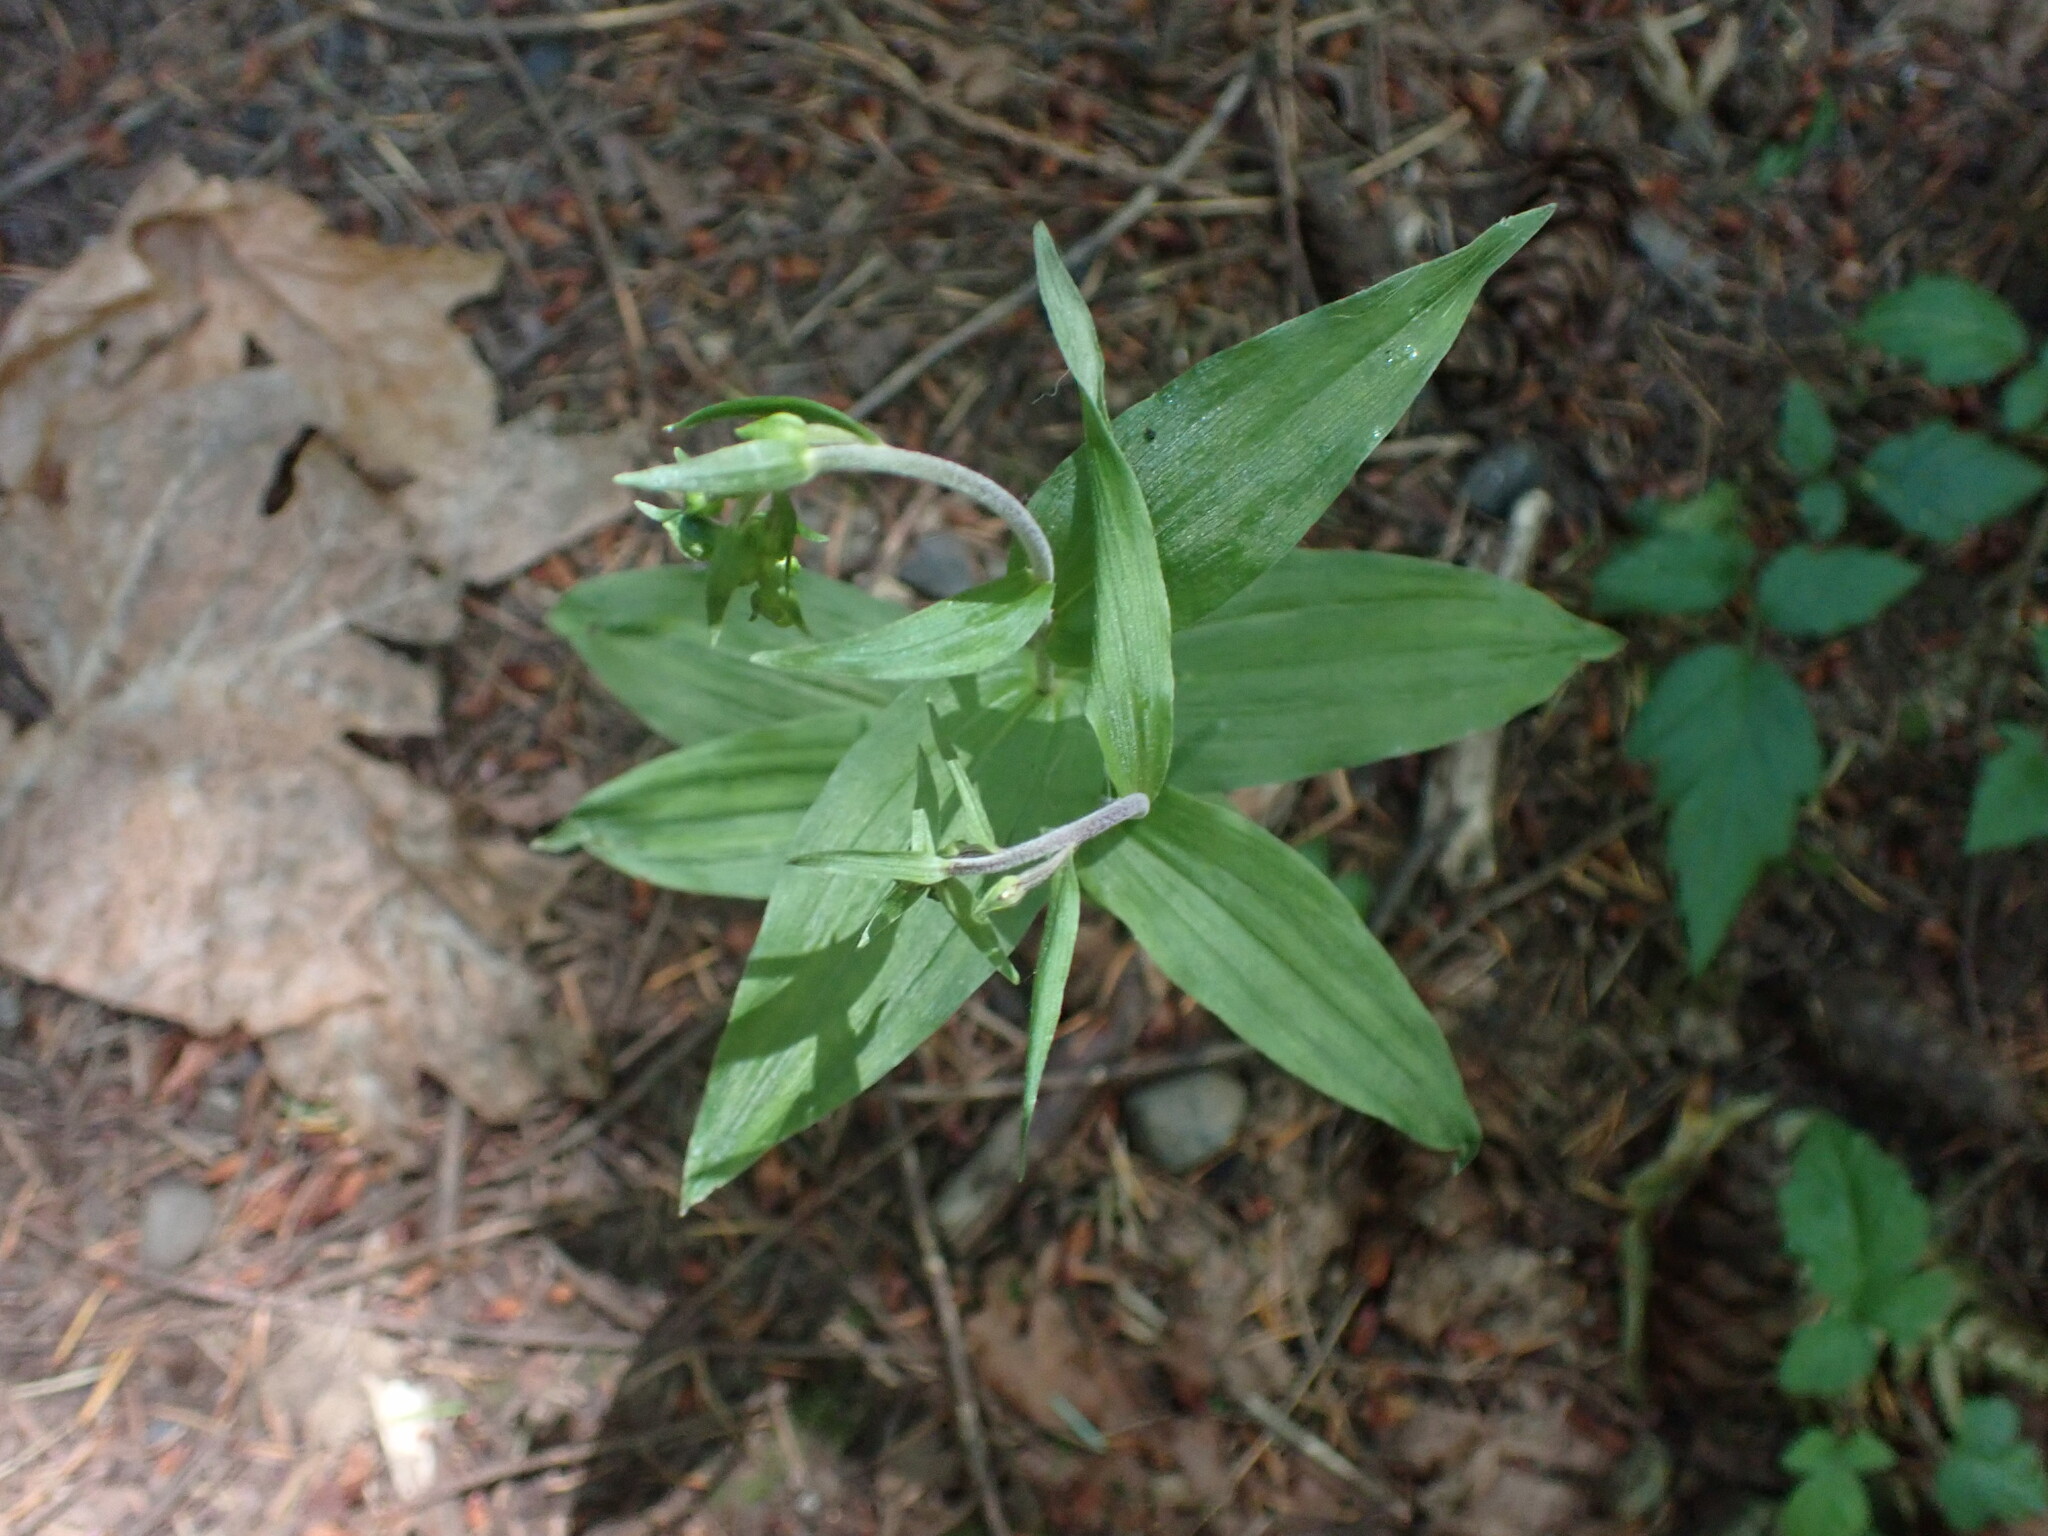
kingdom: Plantae
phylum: Tracheophyta
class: Liliopsida
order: Asparagales
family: Orchidaceae
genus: Epipactis
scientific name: Epipactis helleborine
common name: Broad-leaved helleborine
